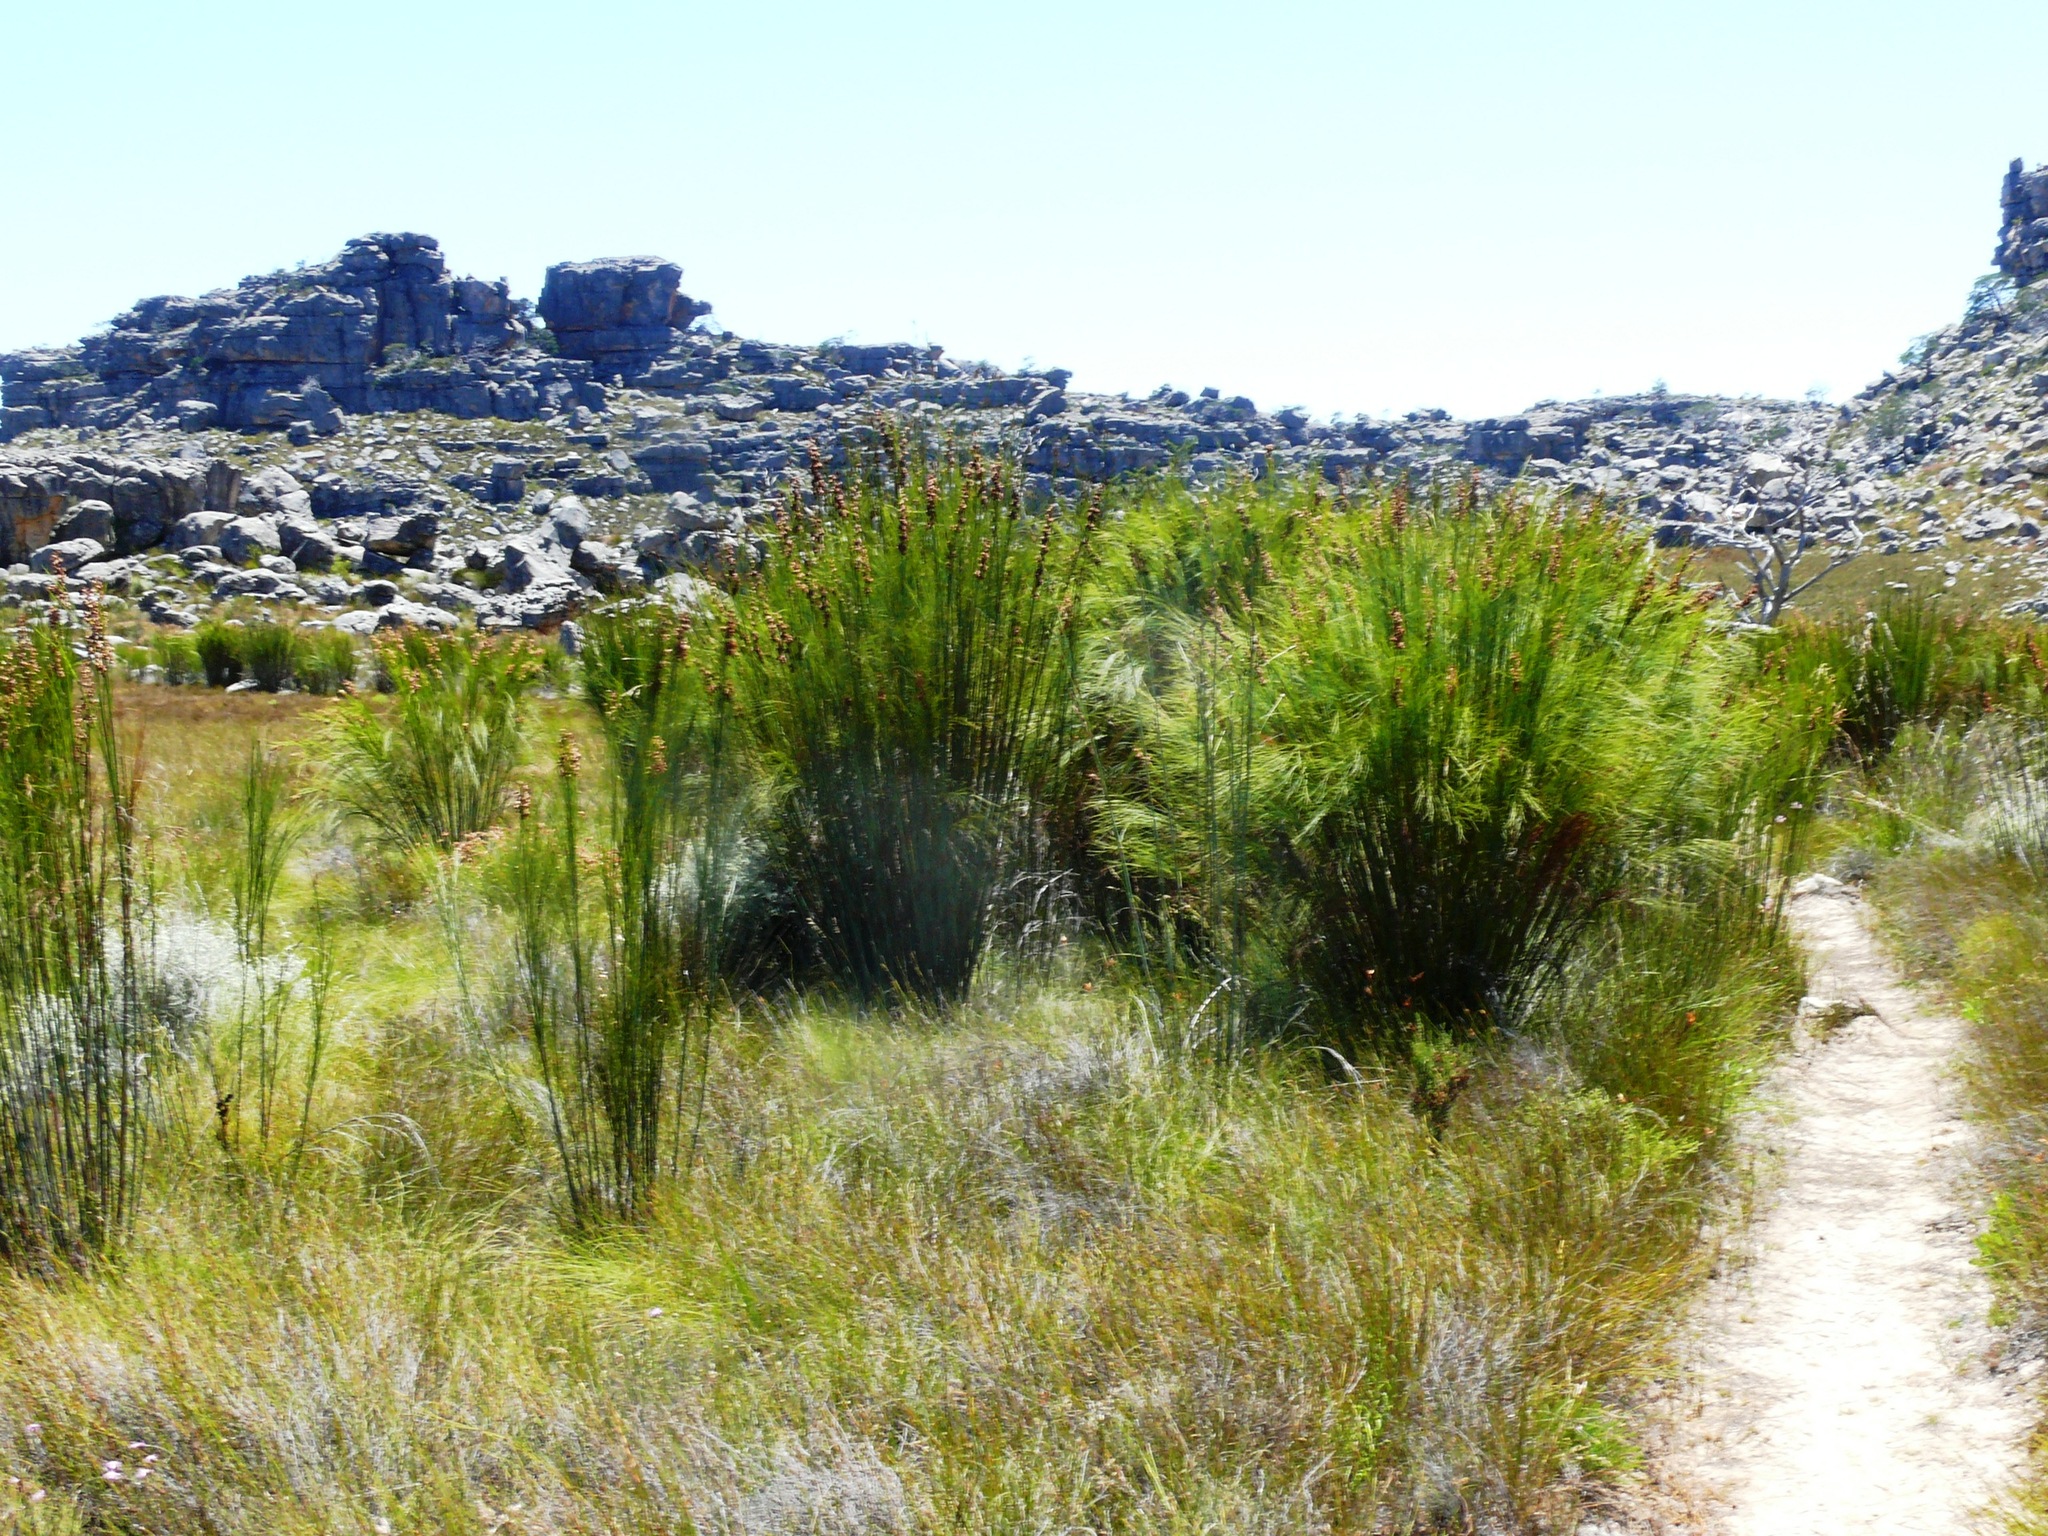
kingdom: Plantae
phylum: Tracheophyta
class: Liliopsida
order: Poales
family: Restionaceae
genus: Cannomois
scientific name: Cannomois robusta
